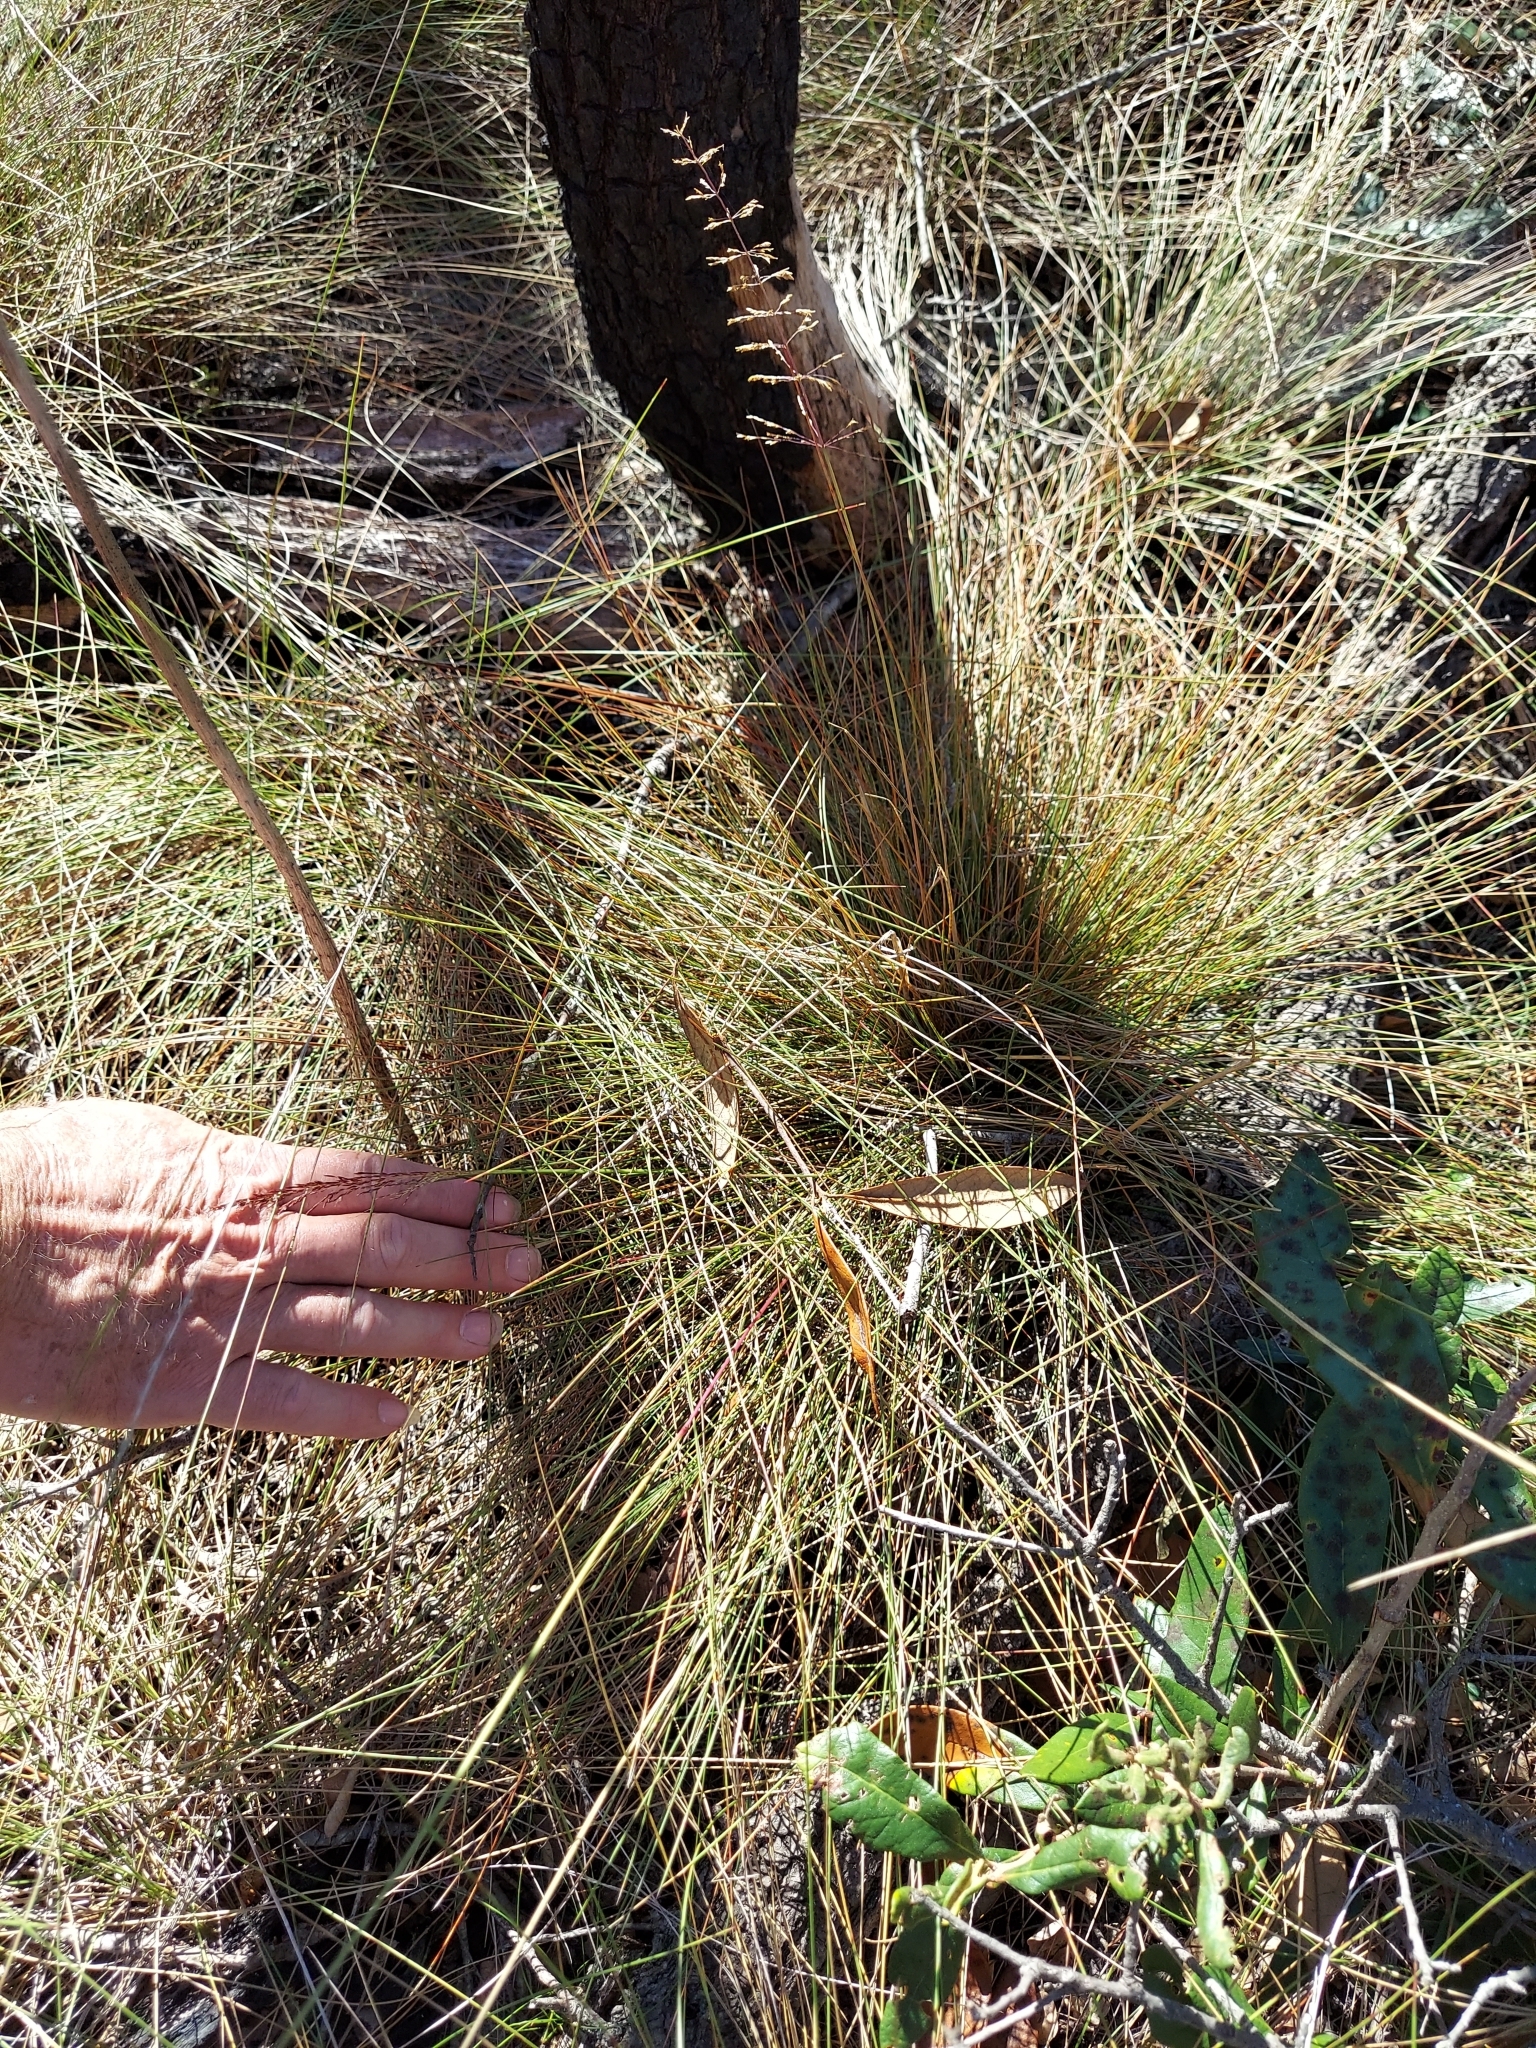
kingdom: Plantae
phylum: Tracheophyta
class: Liliopsida
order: Poales
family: Poaceae
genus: Sporobolus
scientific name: Sporobolus junceus
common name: Lizard grass
